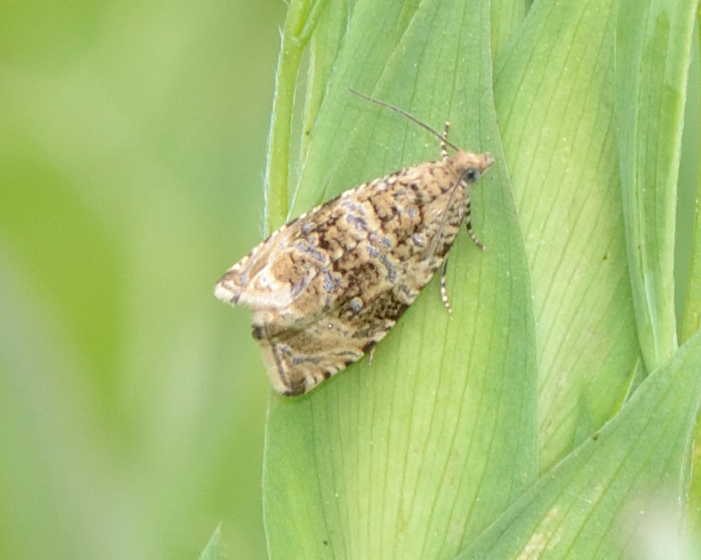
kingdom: Animalia
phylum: Arthropoda
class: Insecta
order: Lepidoptera
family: Tortricidae
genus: Syricoris
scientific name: Syricoris lacunana
